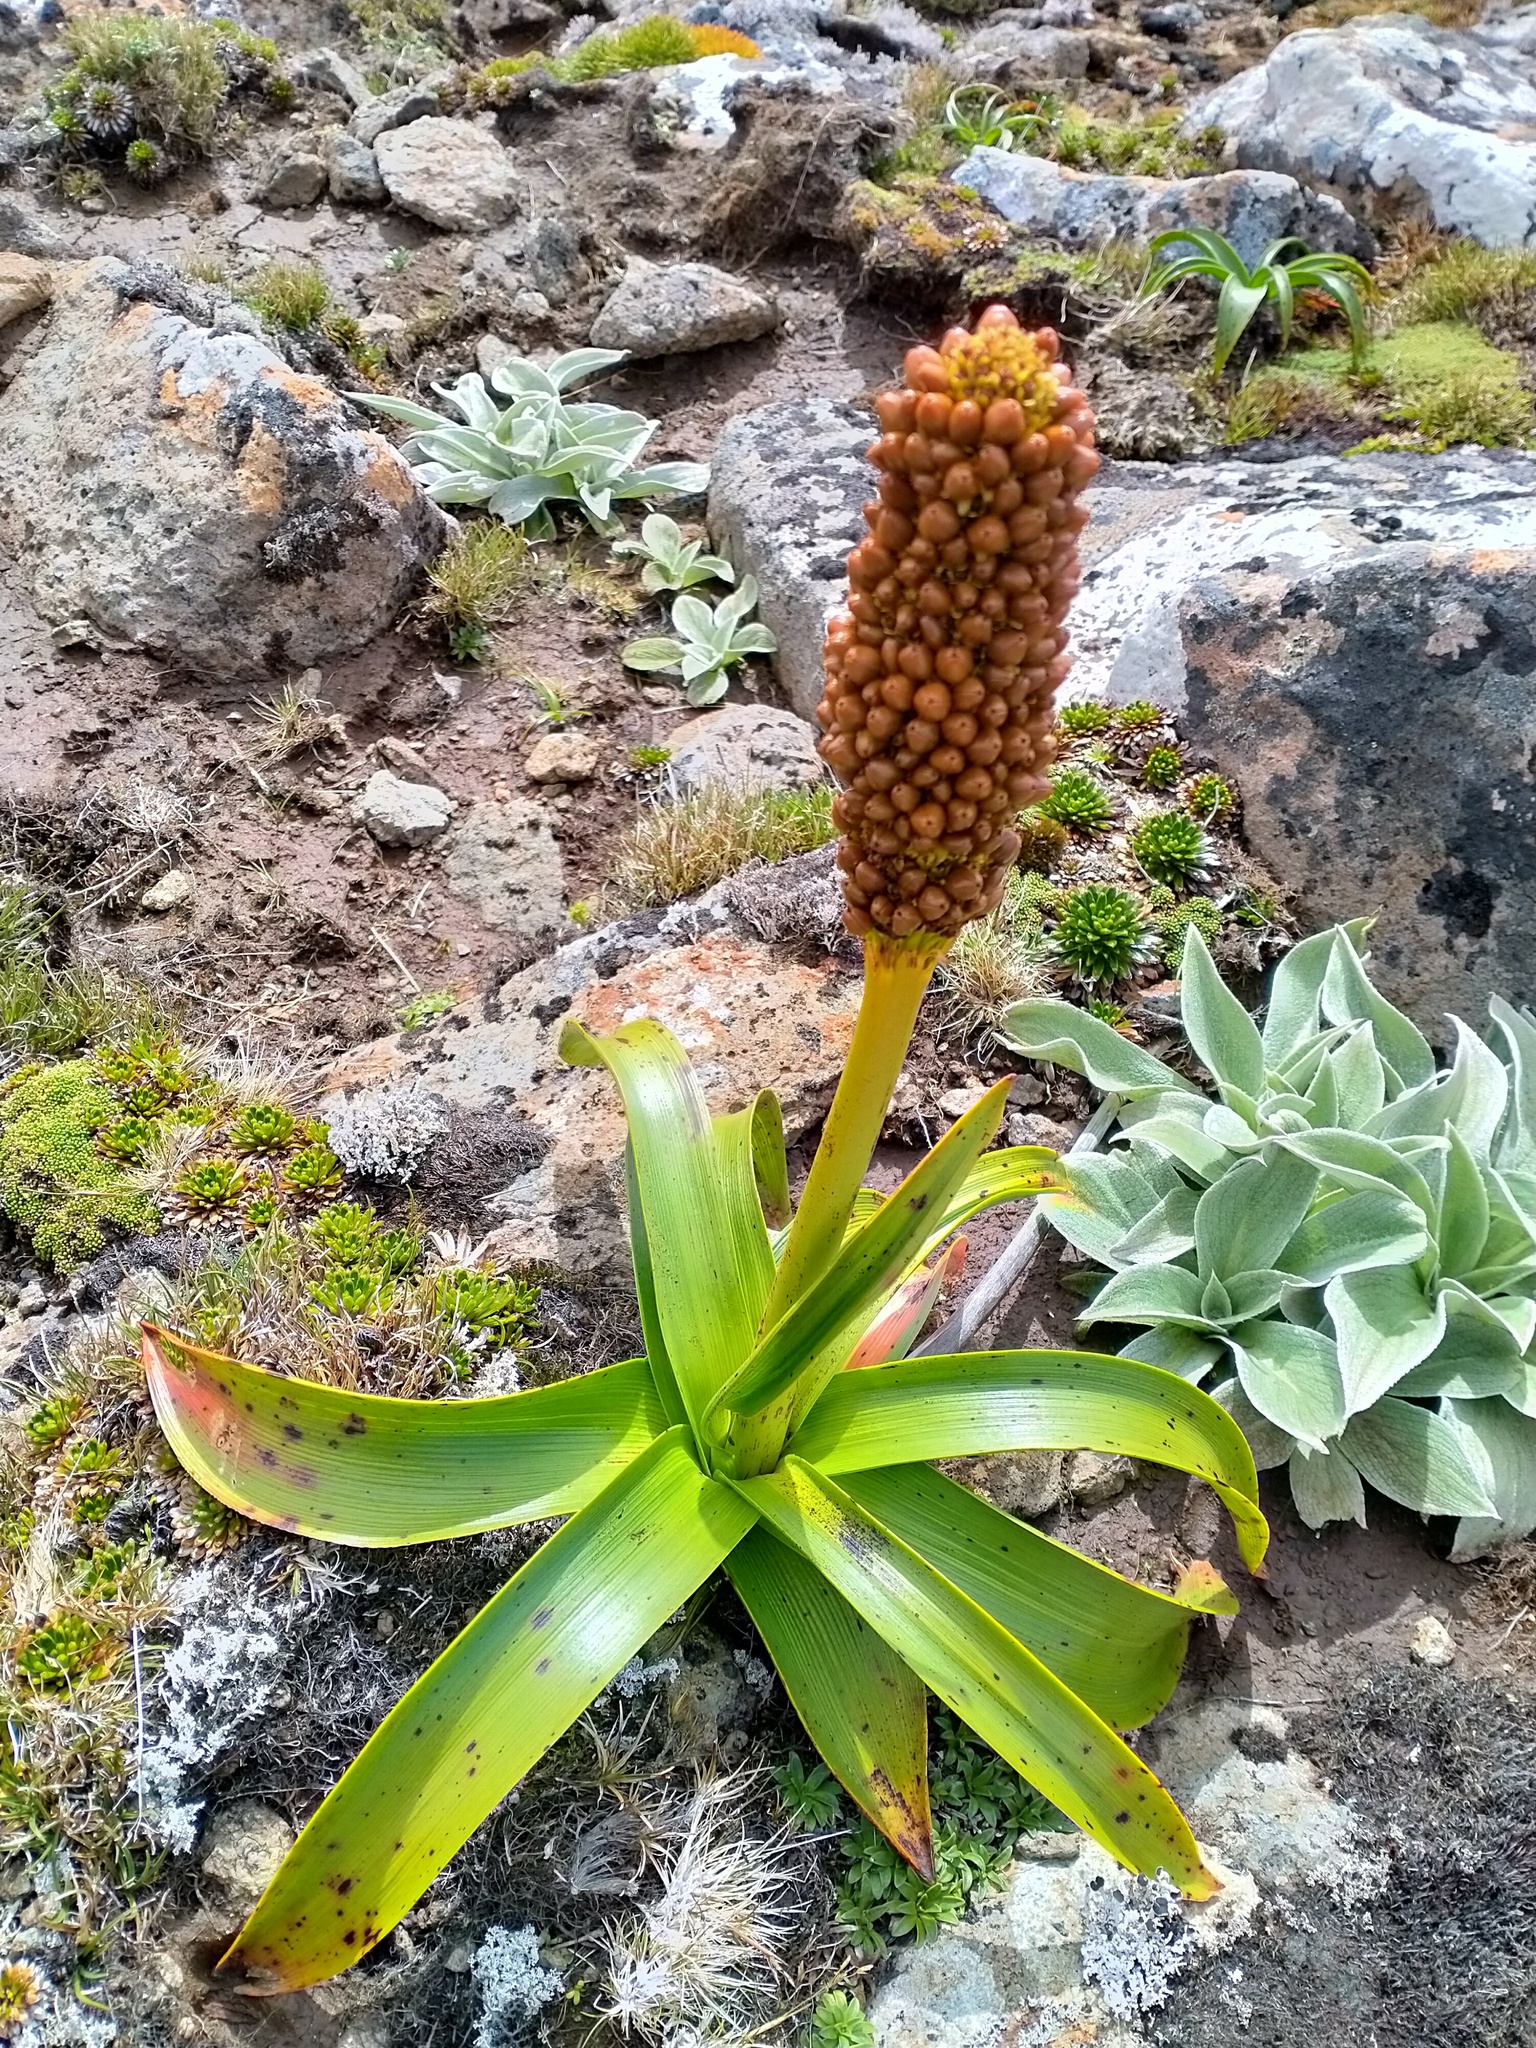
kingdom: Plantae
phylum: Tracheophyta
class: Liliopsida
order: Asparagales
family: Asphodelaceae
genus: Bulbinella
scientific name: Bulbinella rossii
